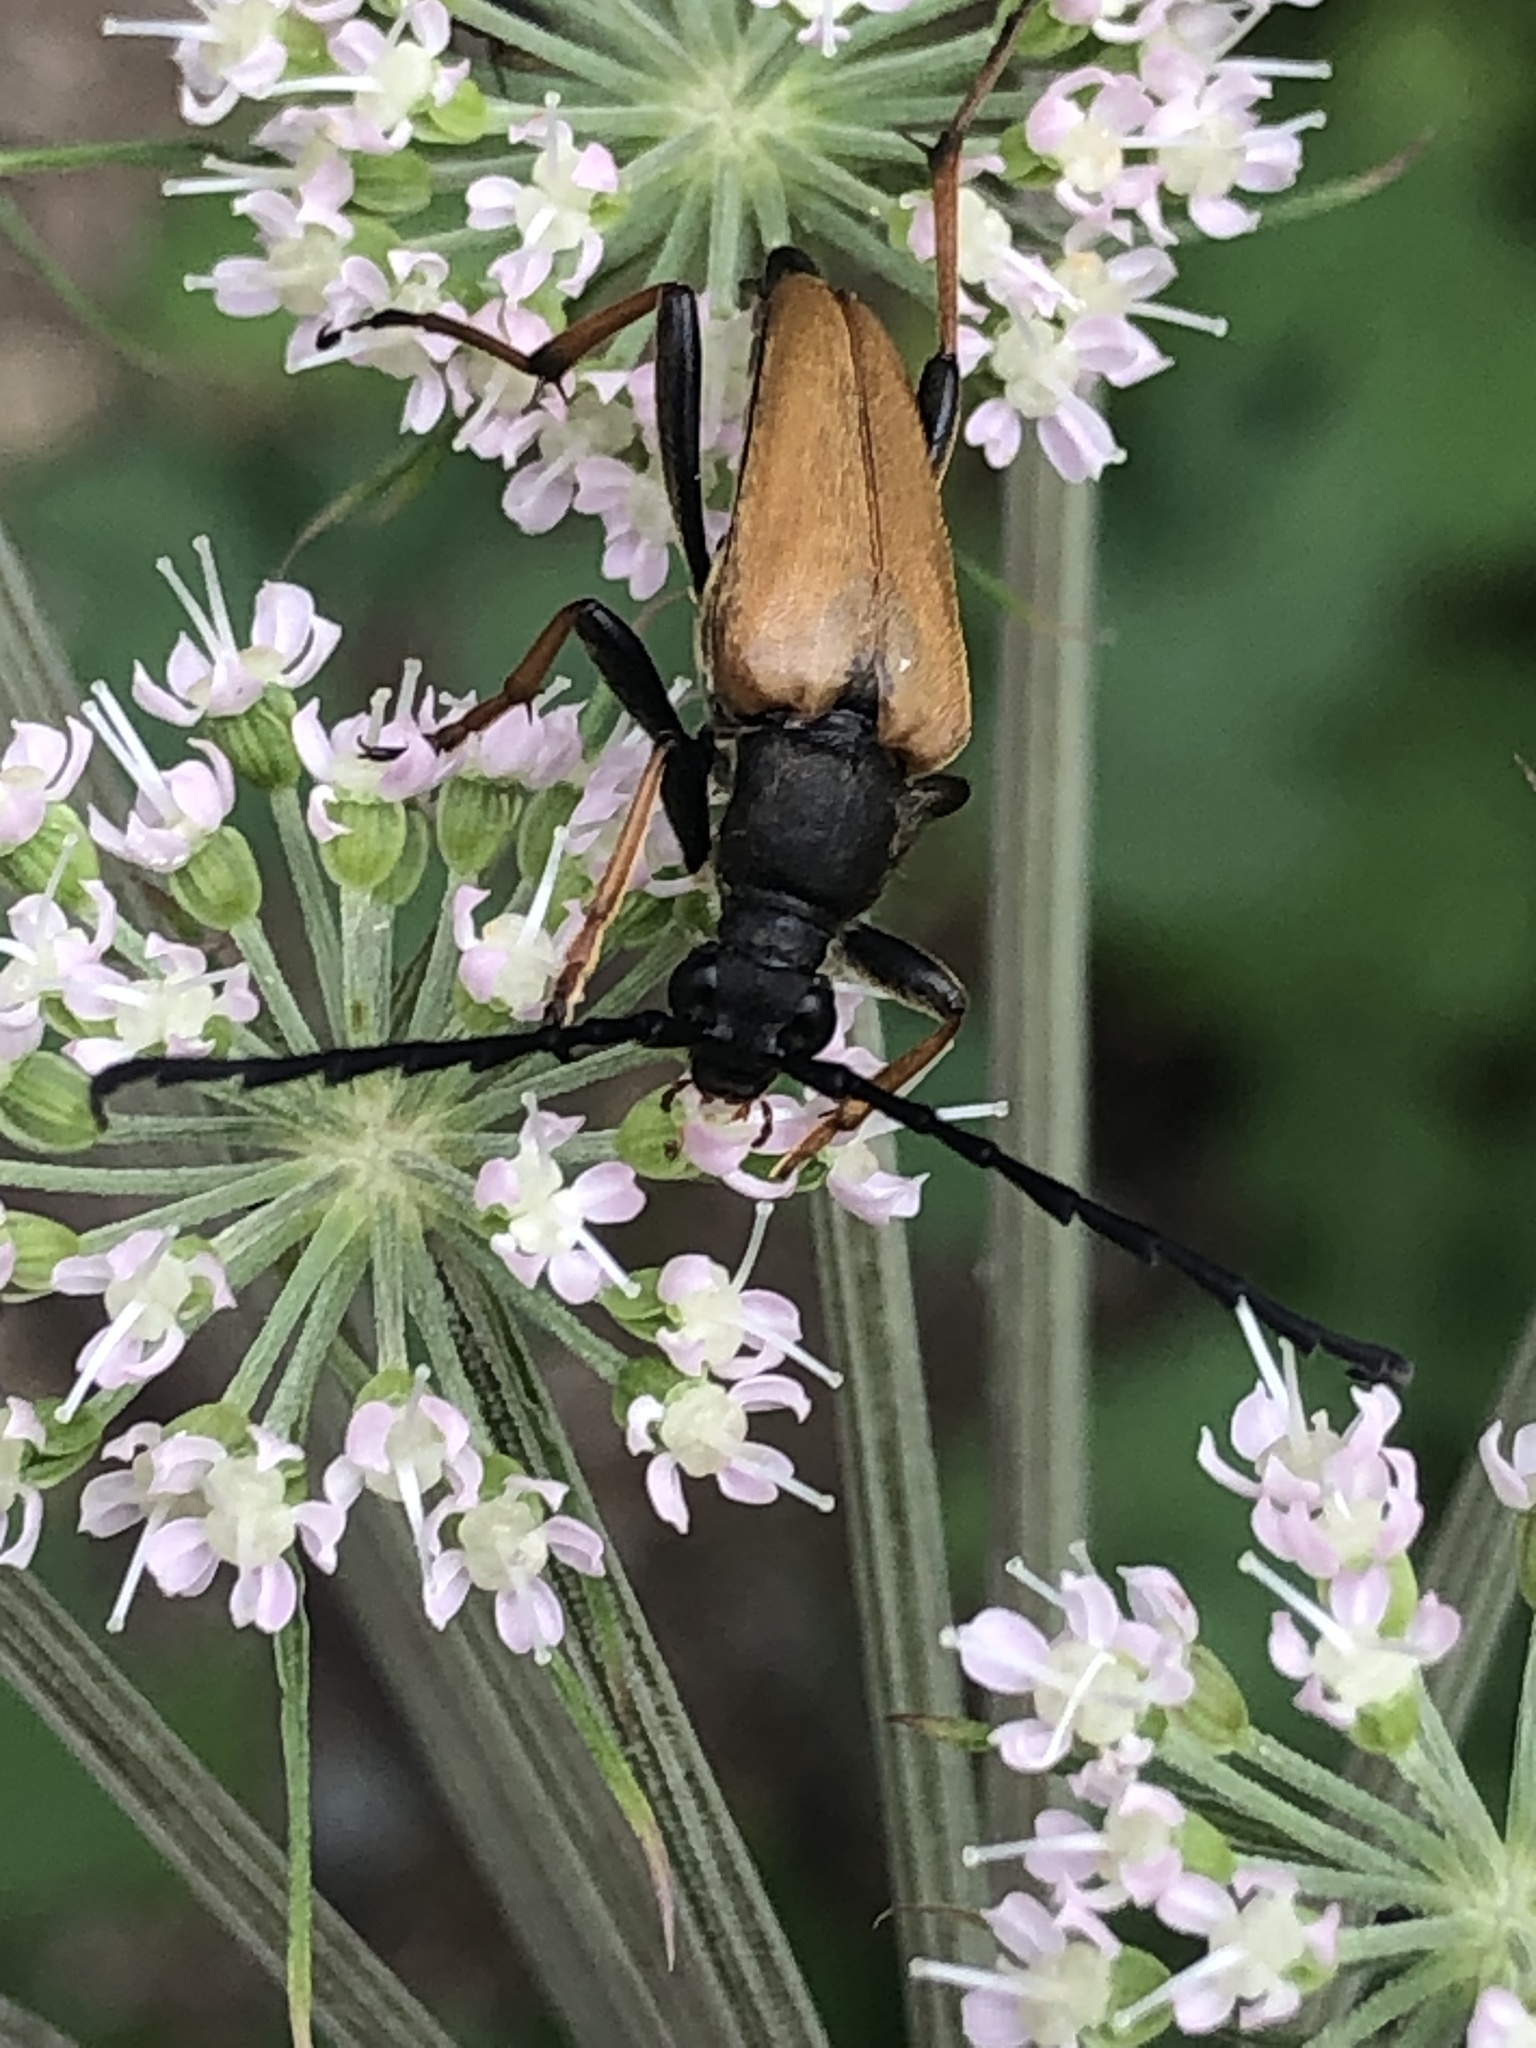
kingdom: Animalia
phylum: Arthropoda
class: Insecta
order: Coleoptera
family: Cerambycidae
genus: Stictoleptura
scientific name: Stictoleptura rubra
